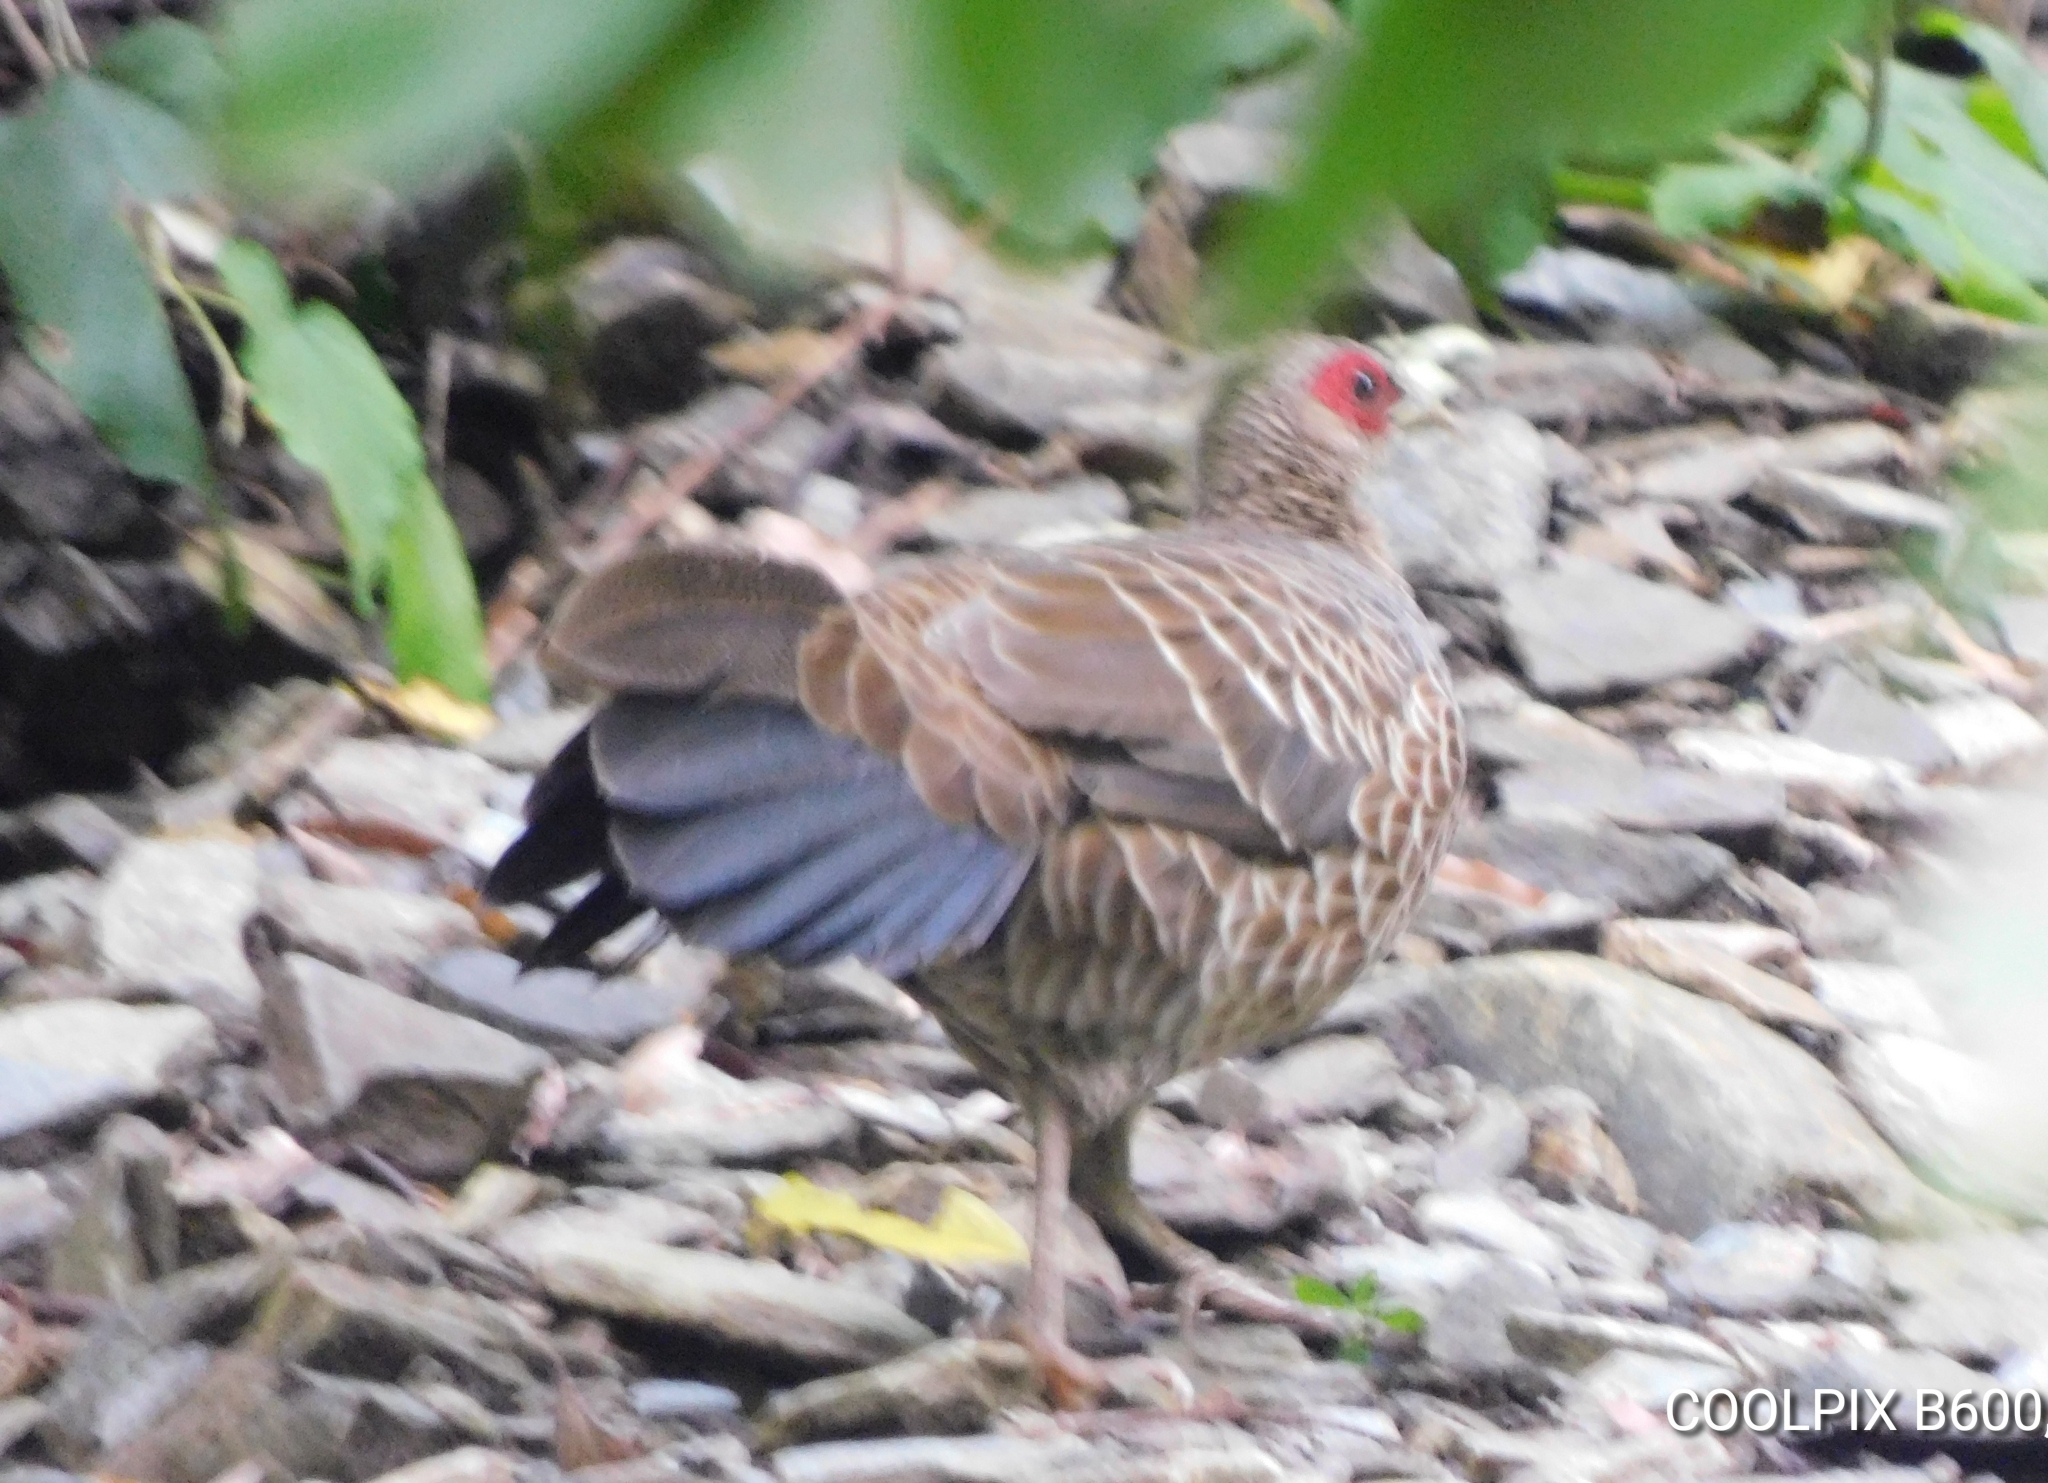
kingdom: Animalia
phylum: Chordata
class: Aves
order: Galliformes
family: Phasianidae
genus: Lophura
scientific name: Lophura leucomelanos
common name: Kalij pheasant
